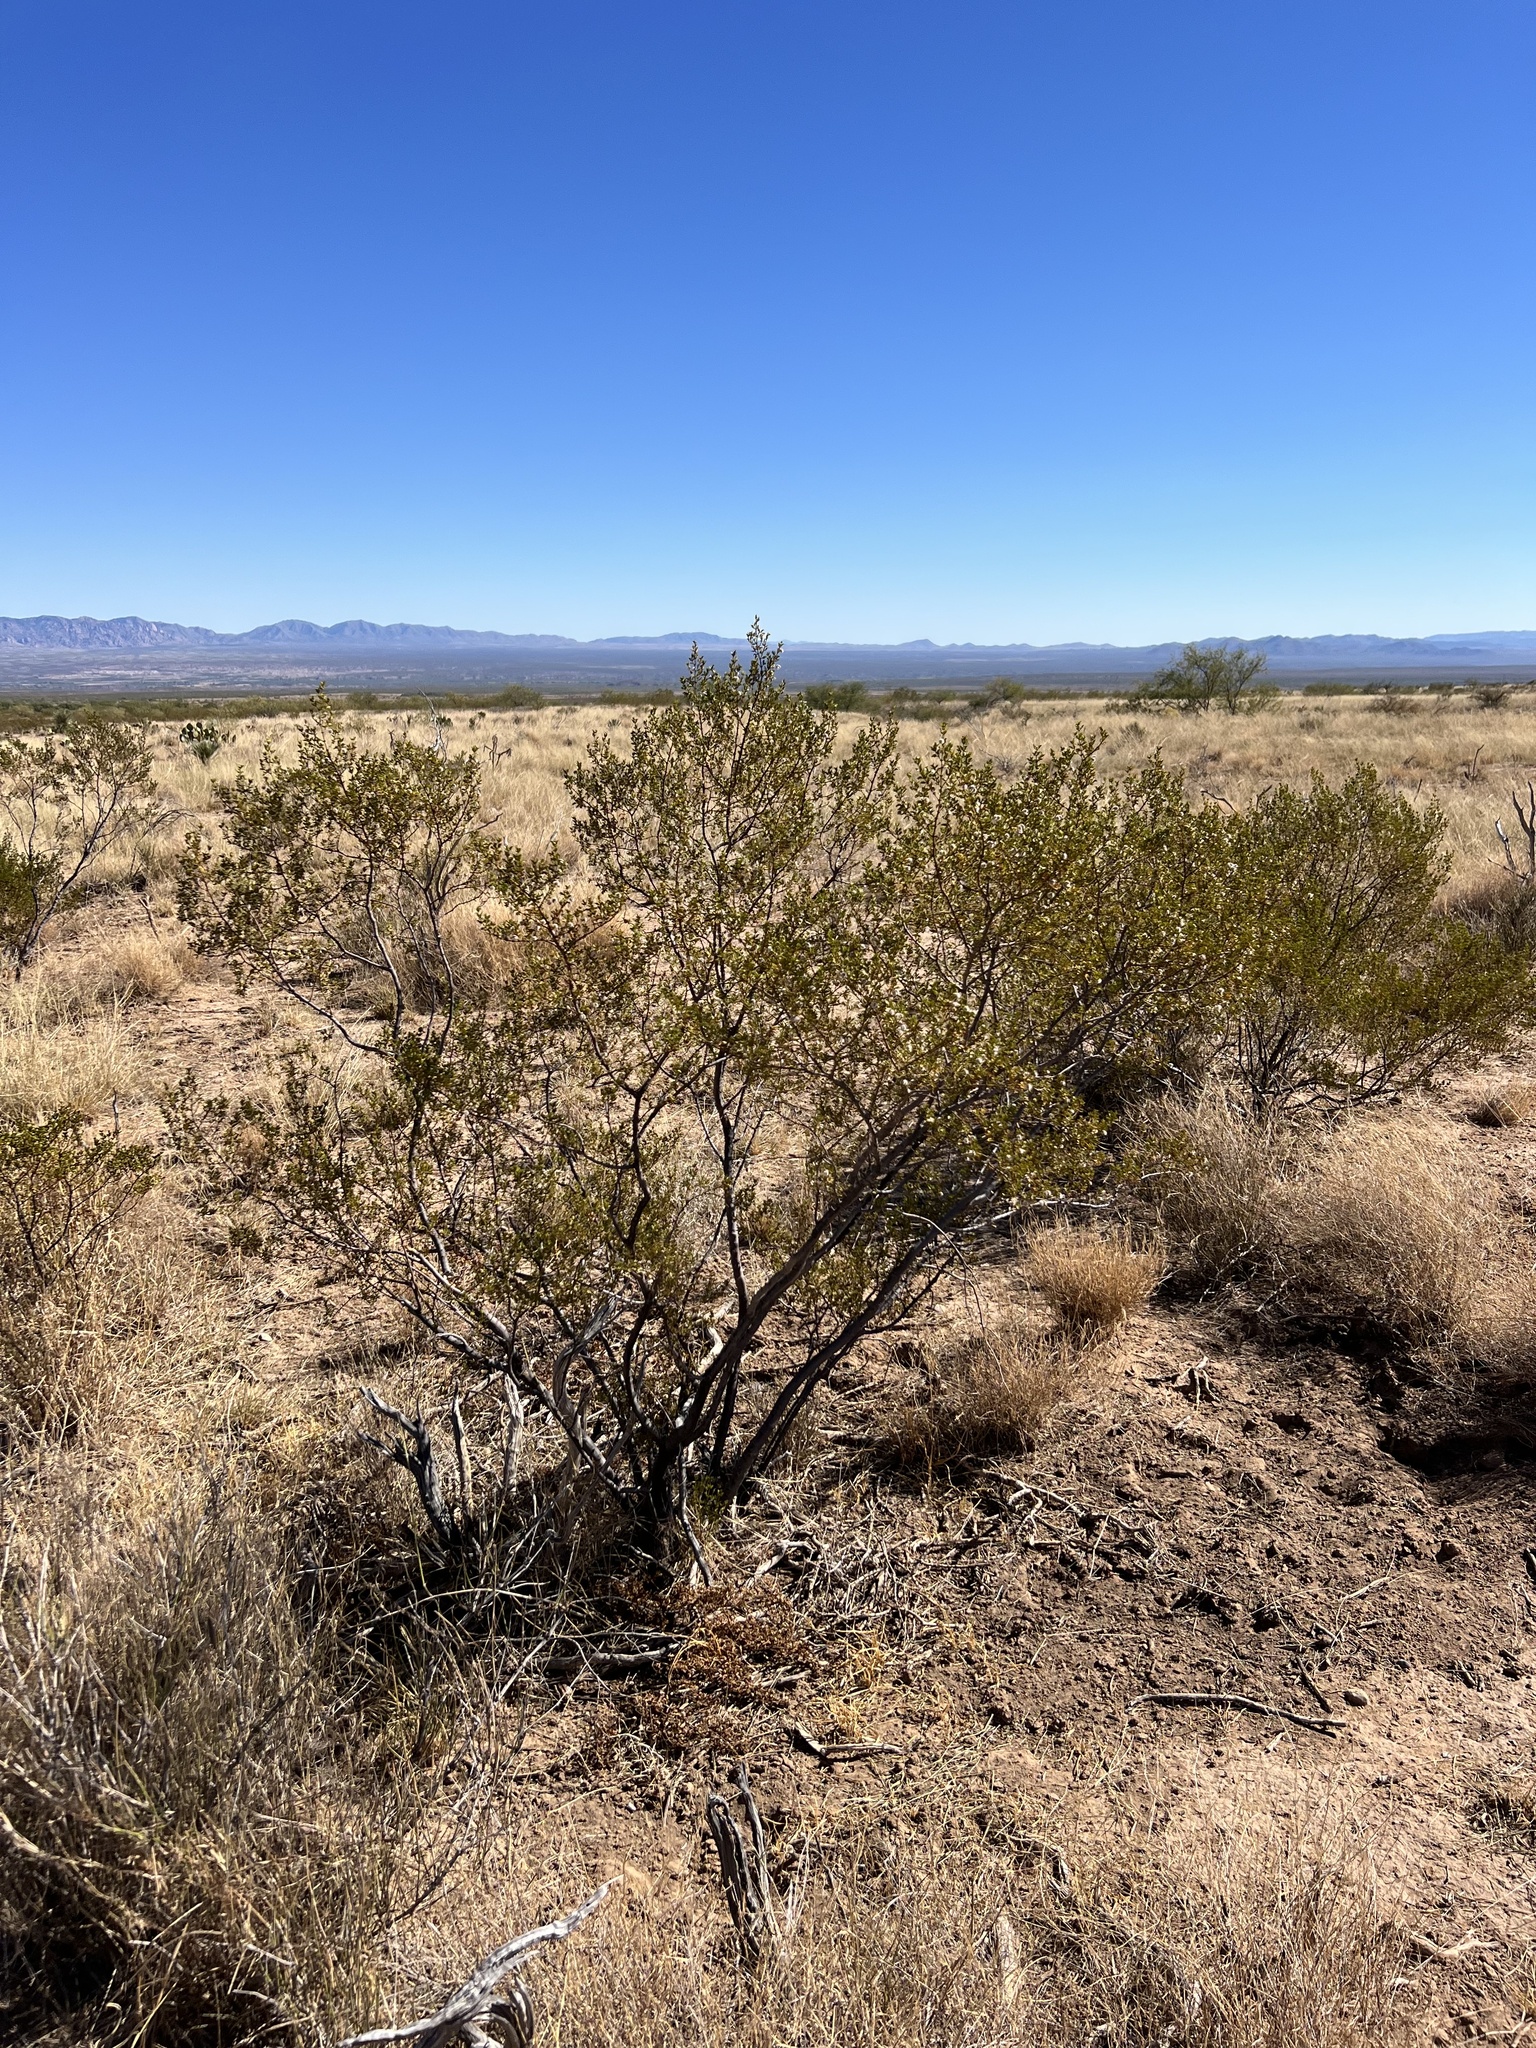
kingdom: Plantae
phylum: Tracheophyta
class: Magnoliopsida
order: Zygophyllales
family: Zygophyllaceae
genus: Larrea
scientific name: Larrea tridentata
